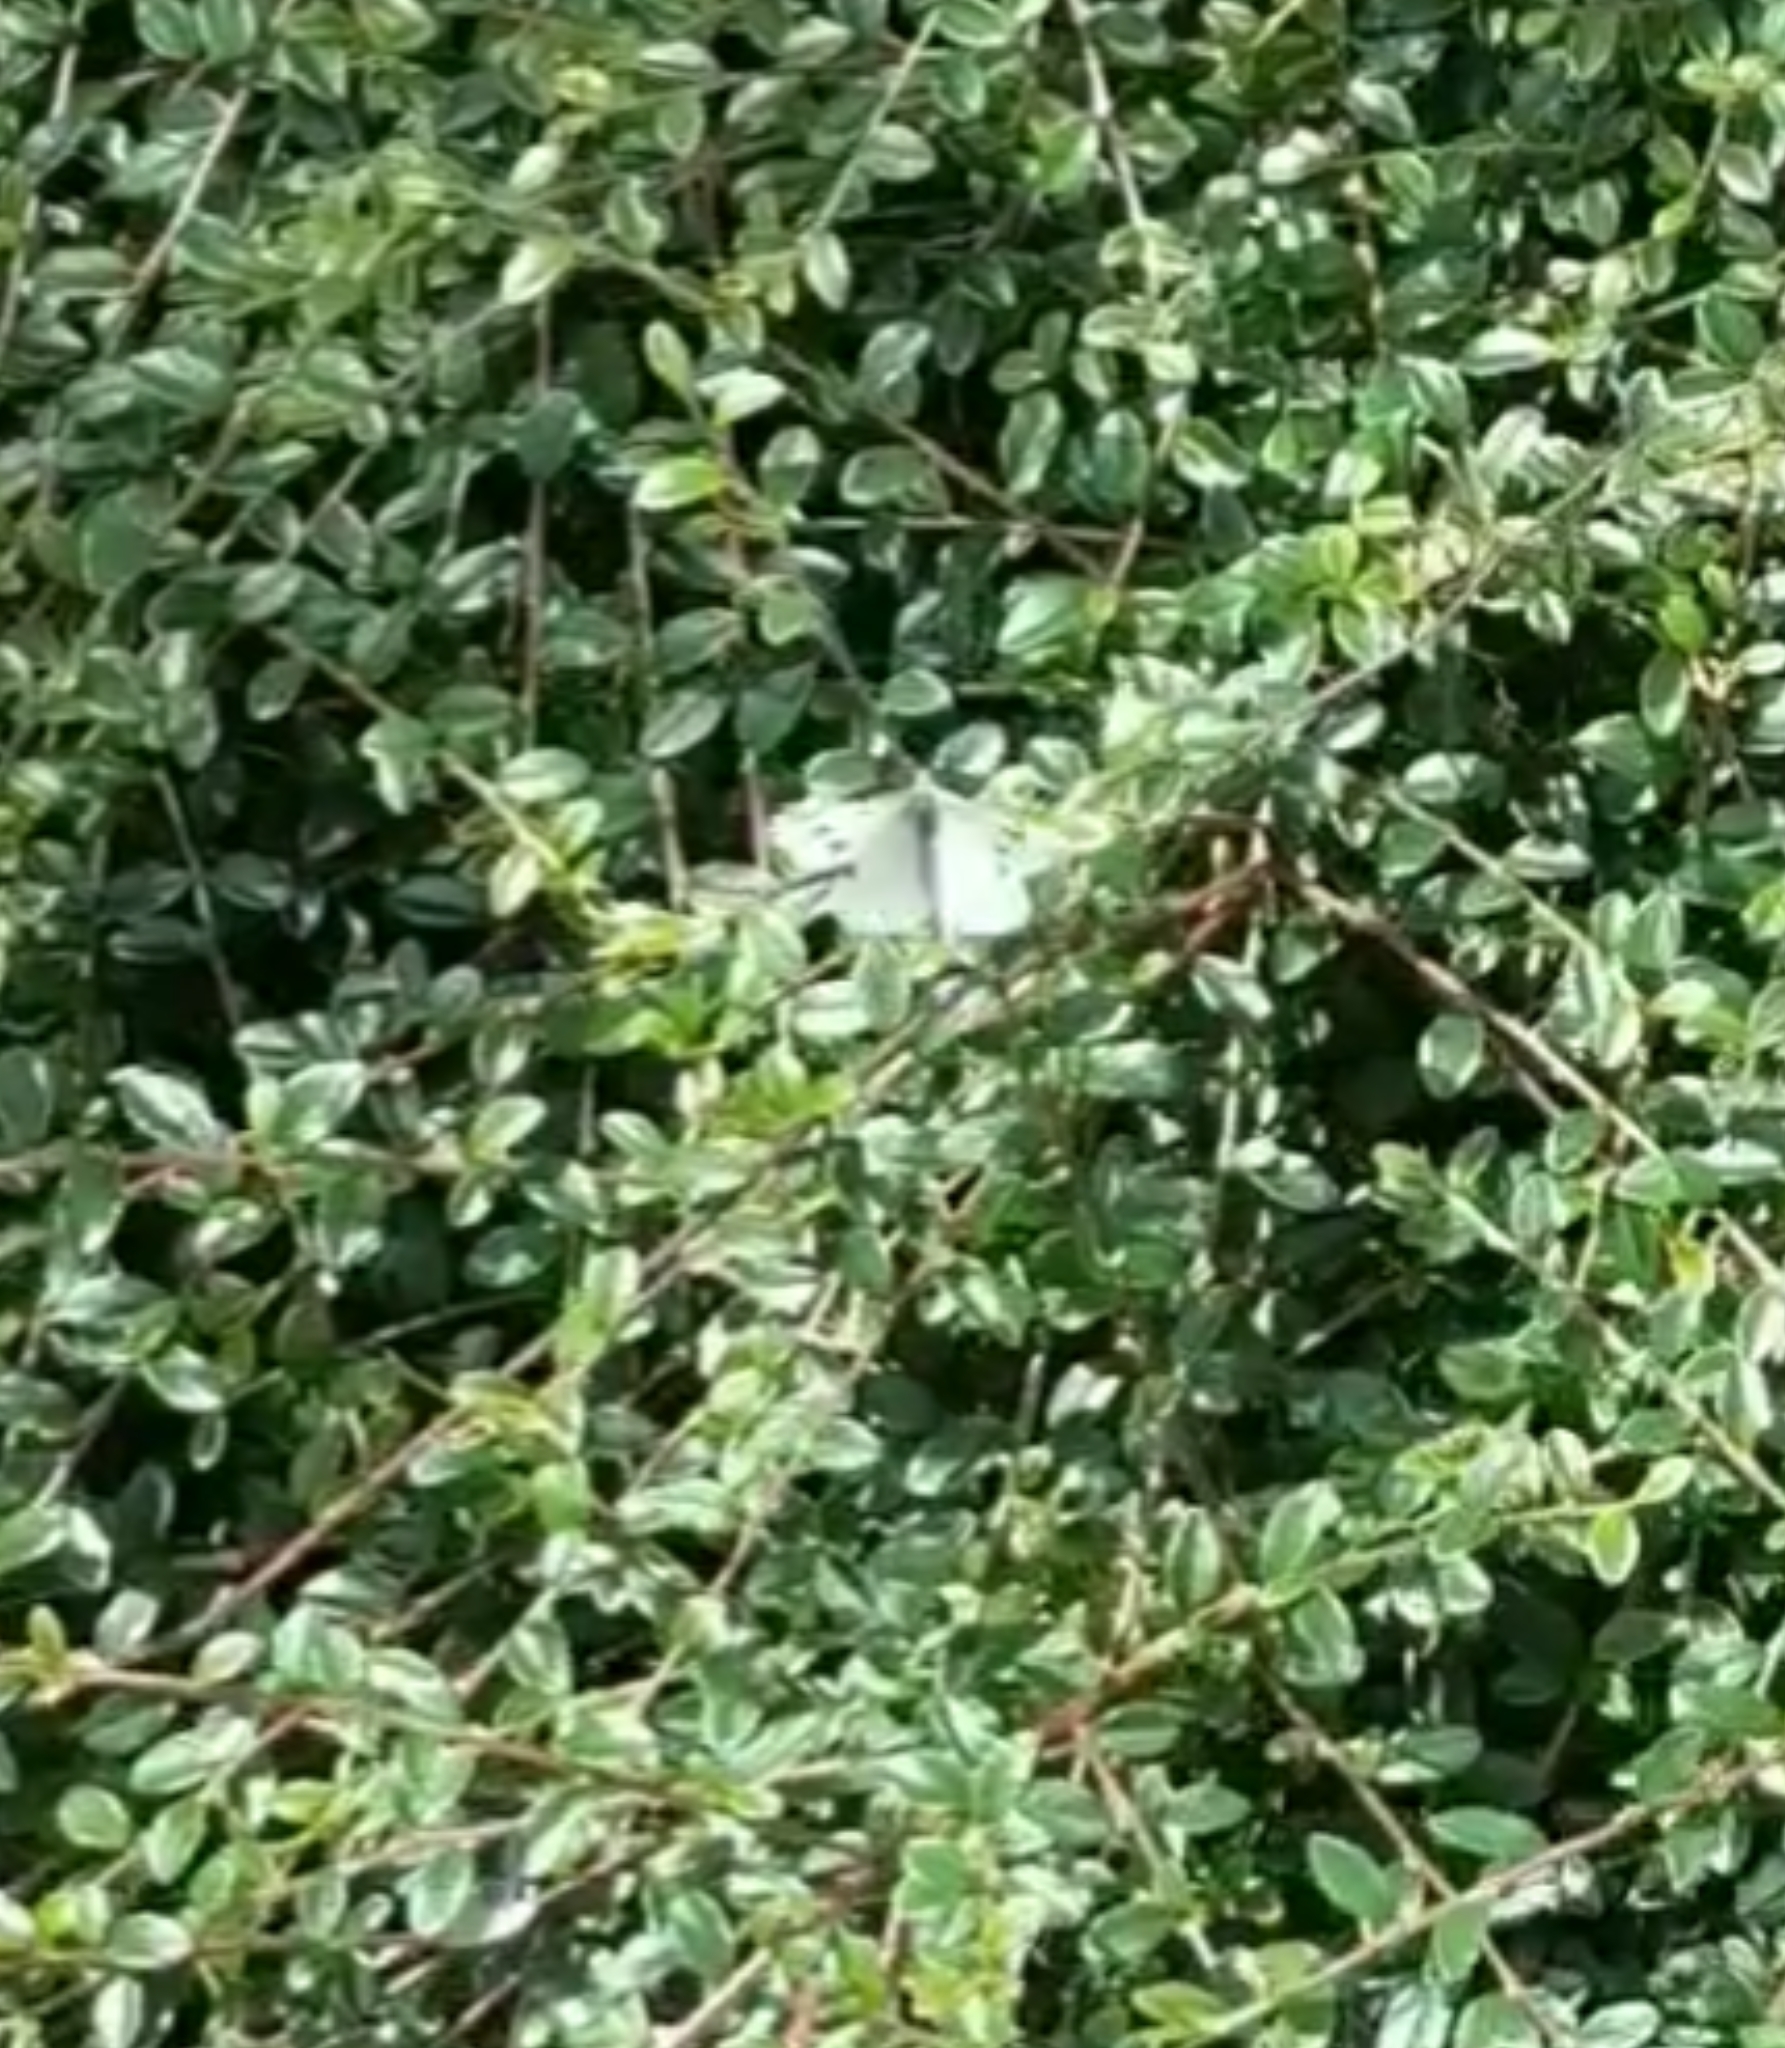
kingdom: Animalia
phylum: Arthropoda
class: Insecta
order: Lepidoptera
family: Pieridae
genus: Pieris
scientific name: Pieris rapae
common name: Small white
